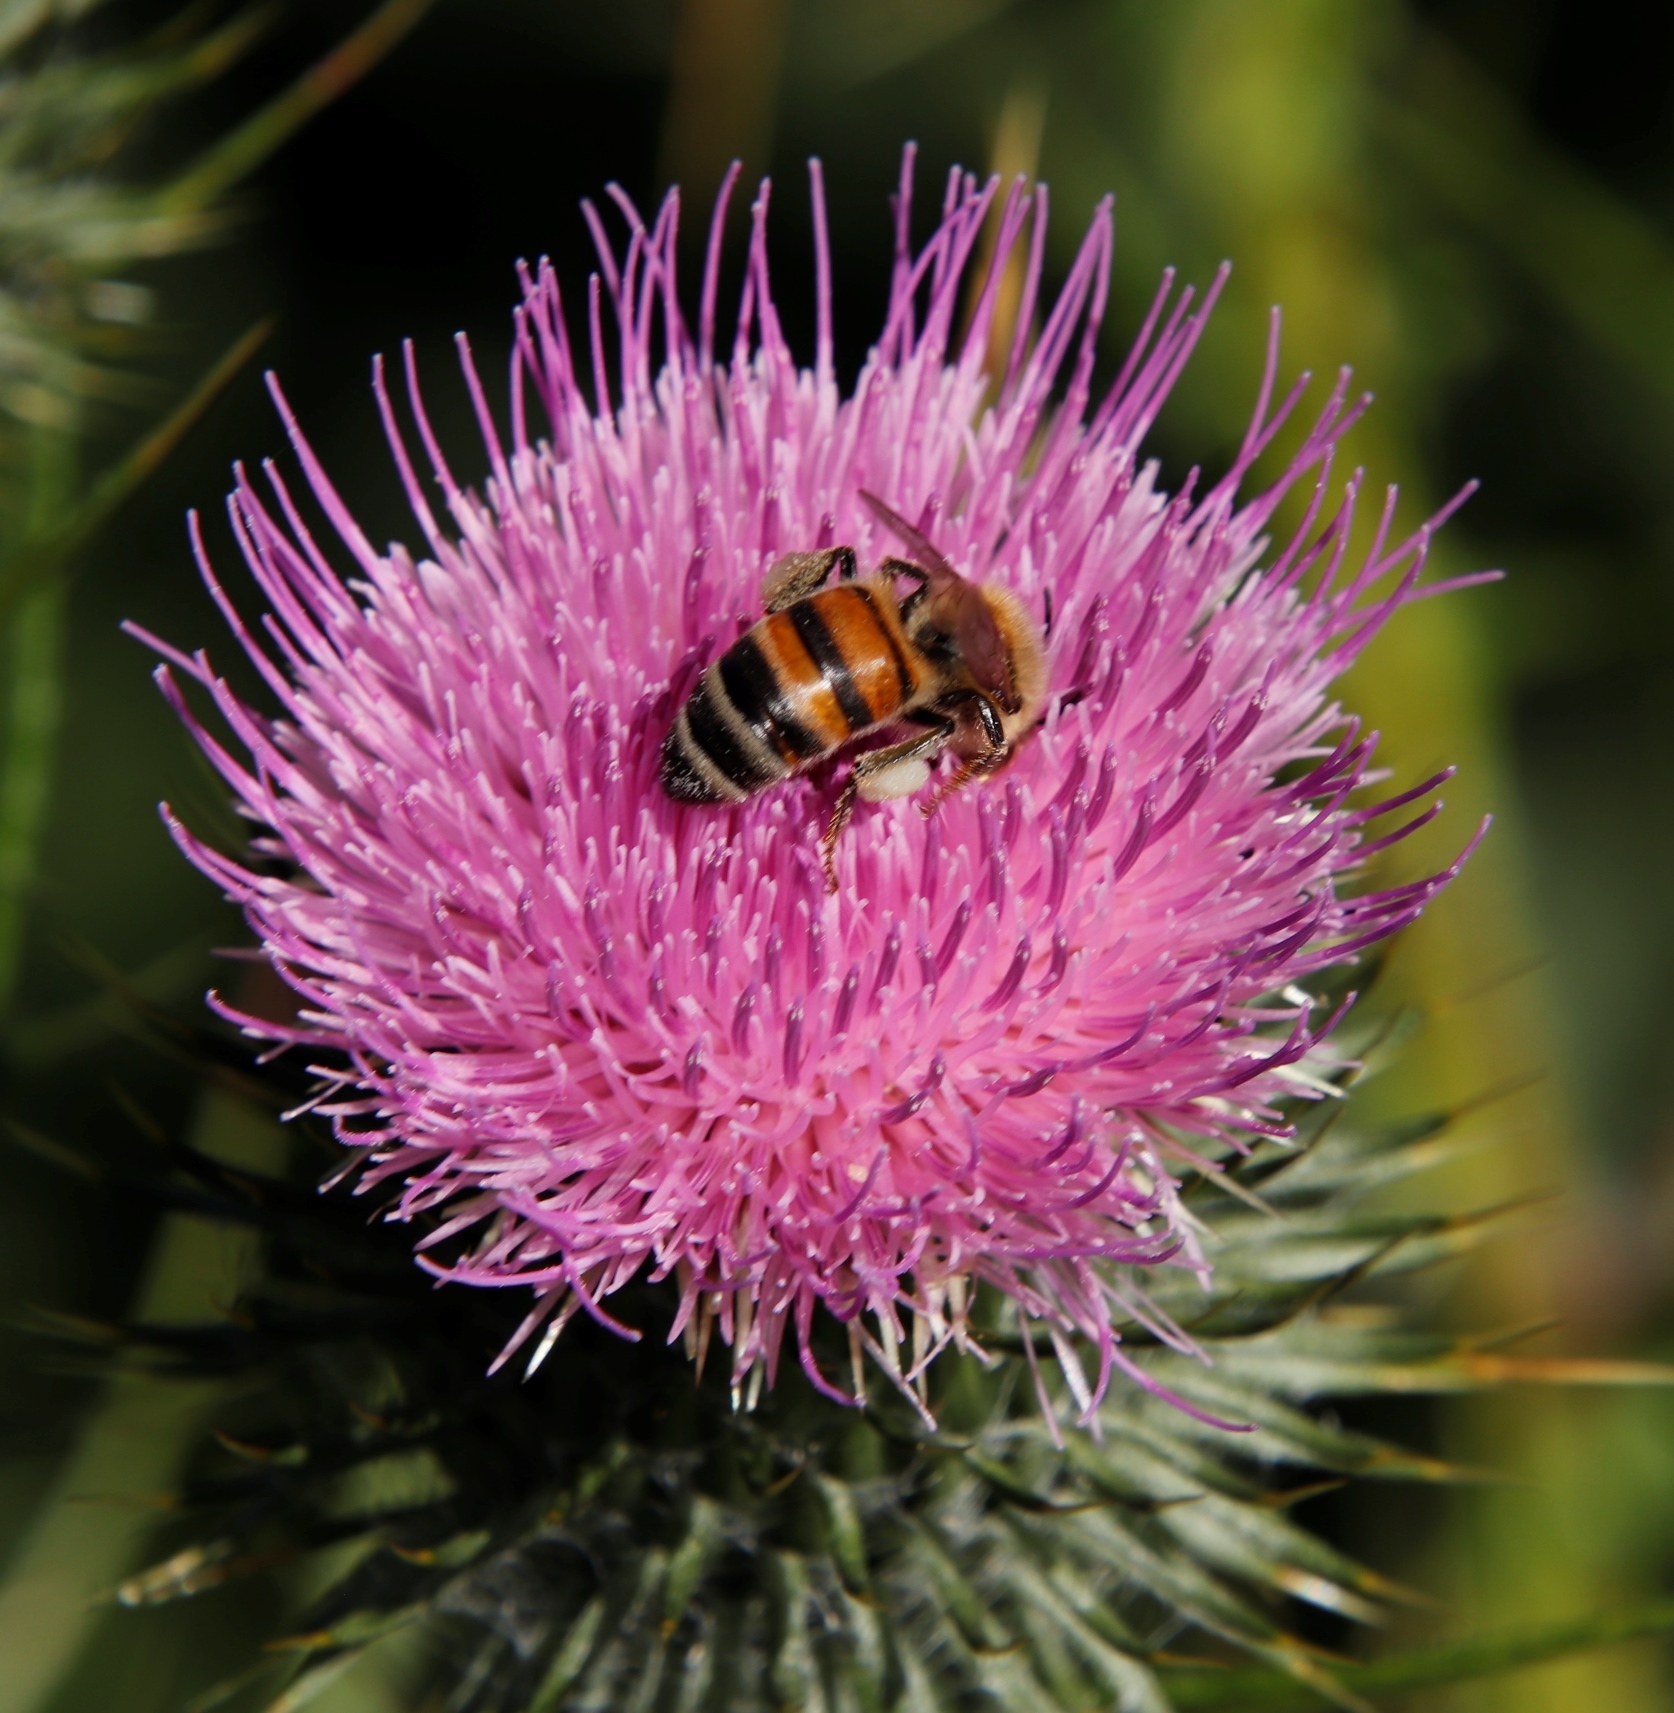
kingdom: Animalia
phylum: Arthropoda
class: Insecta
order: Hymenoptera
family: Apidae
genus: Apis
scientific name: Apis mellifera
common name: Honey bee
